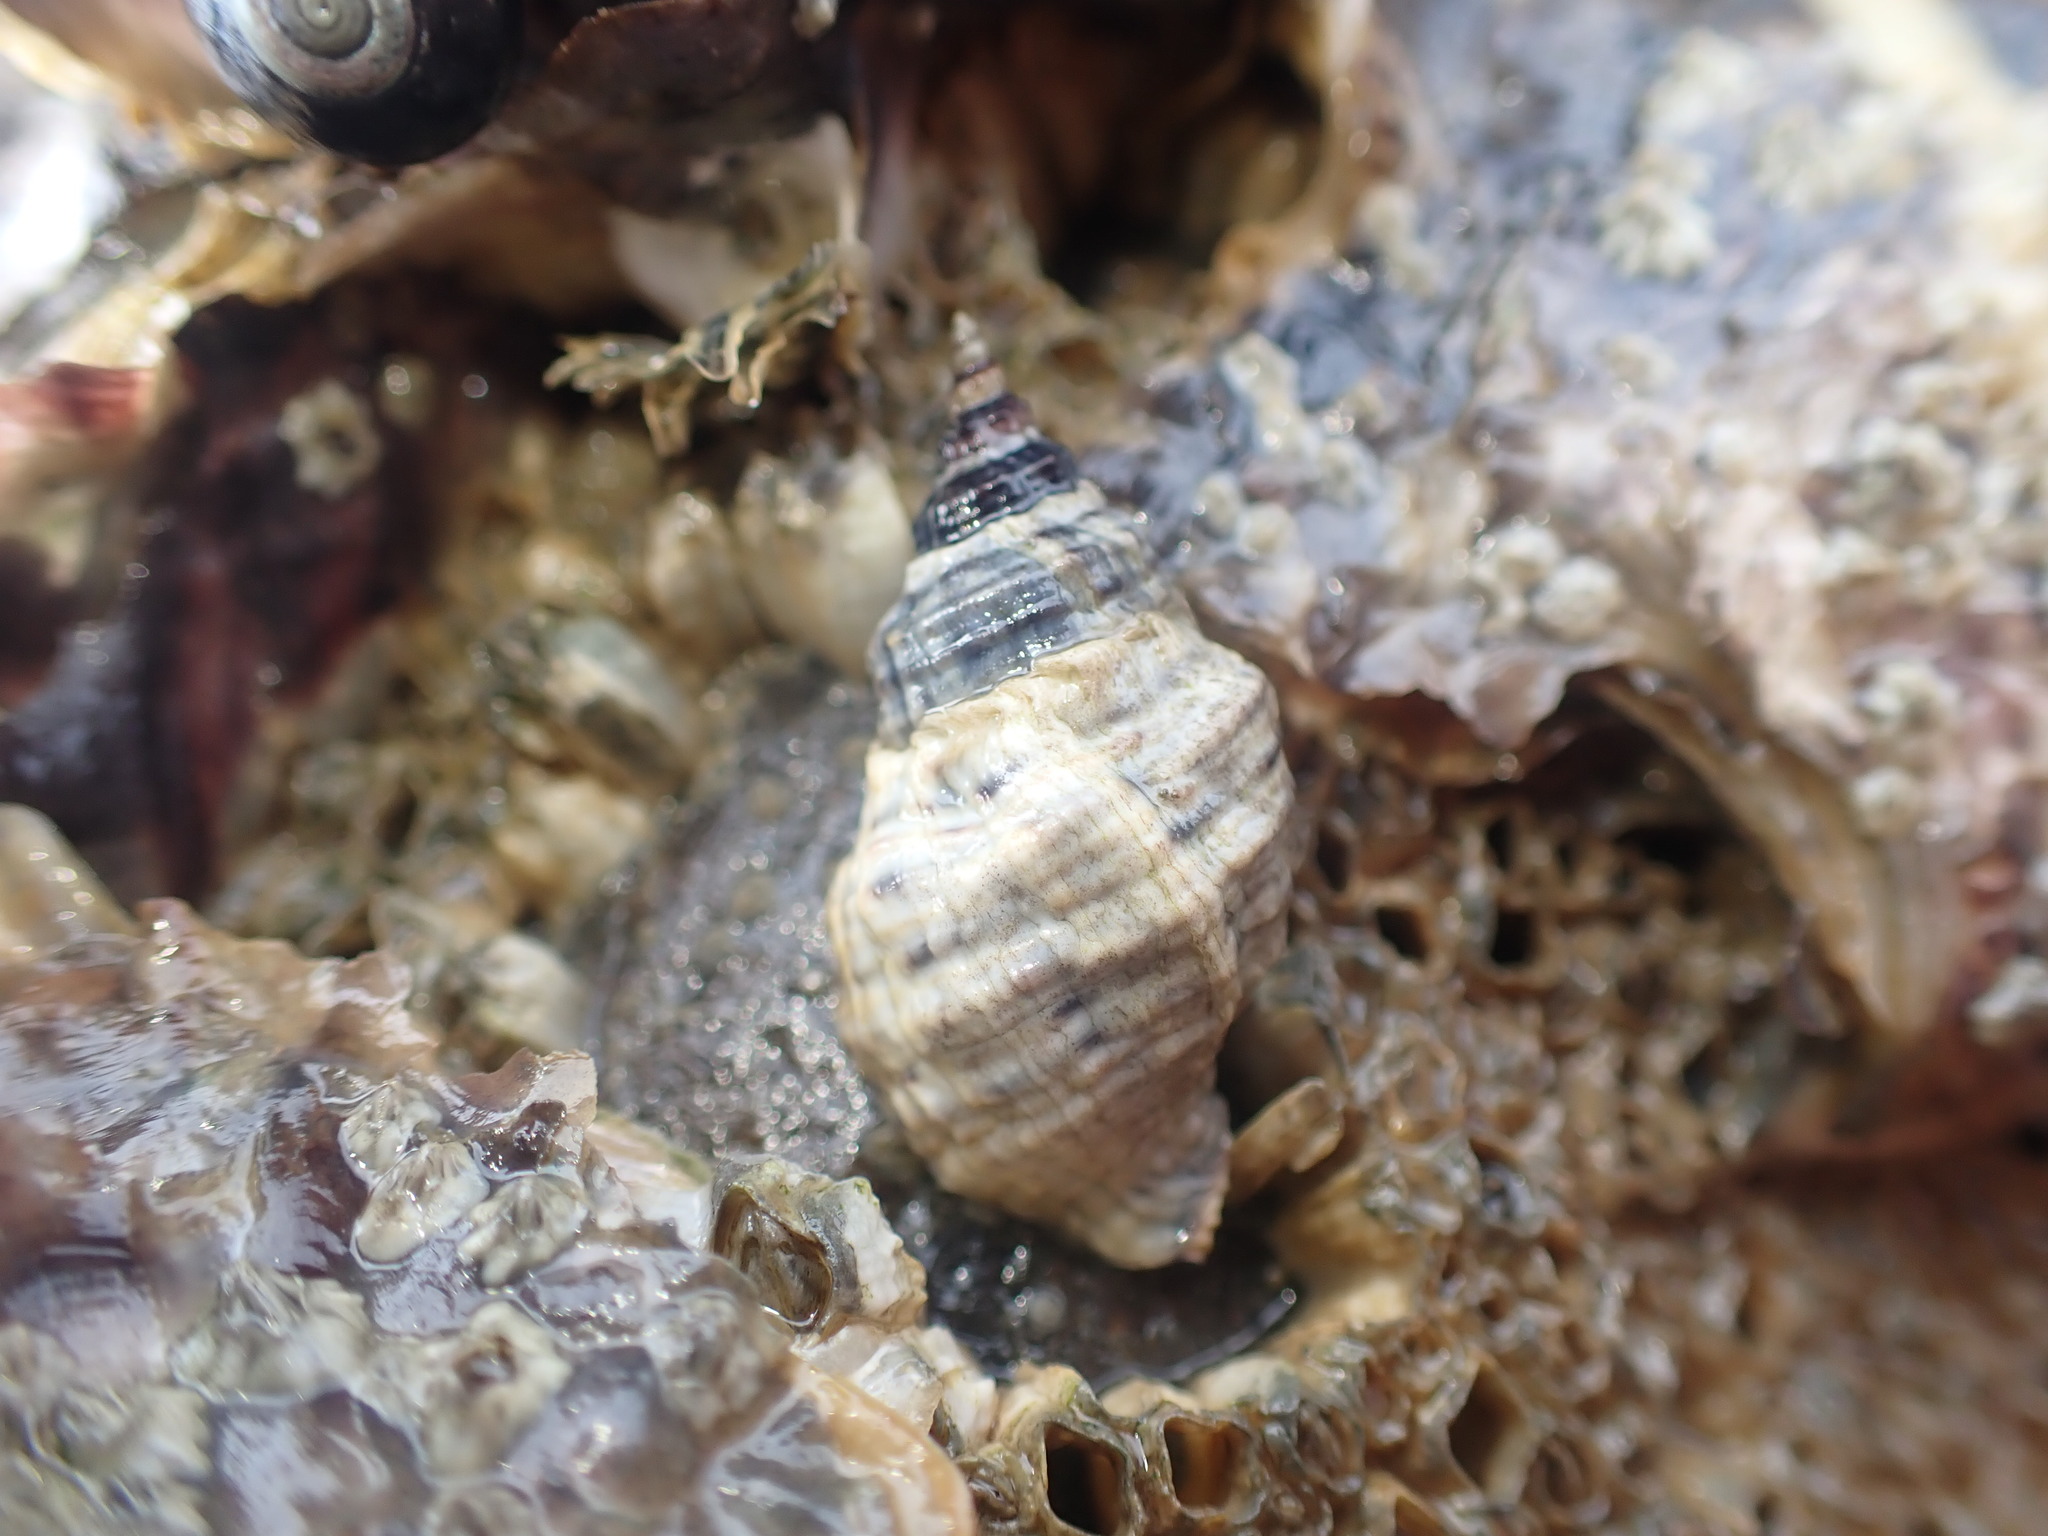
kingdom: Animalia
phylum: Mollusca
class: Gastropoda
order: Neogastropoda
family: Muricidae
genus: Haustrum
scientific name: Haustrum albomarginatum
